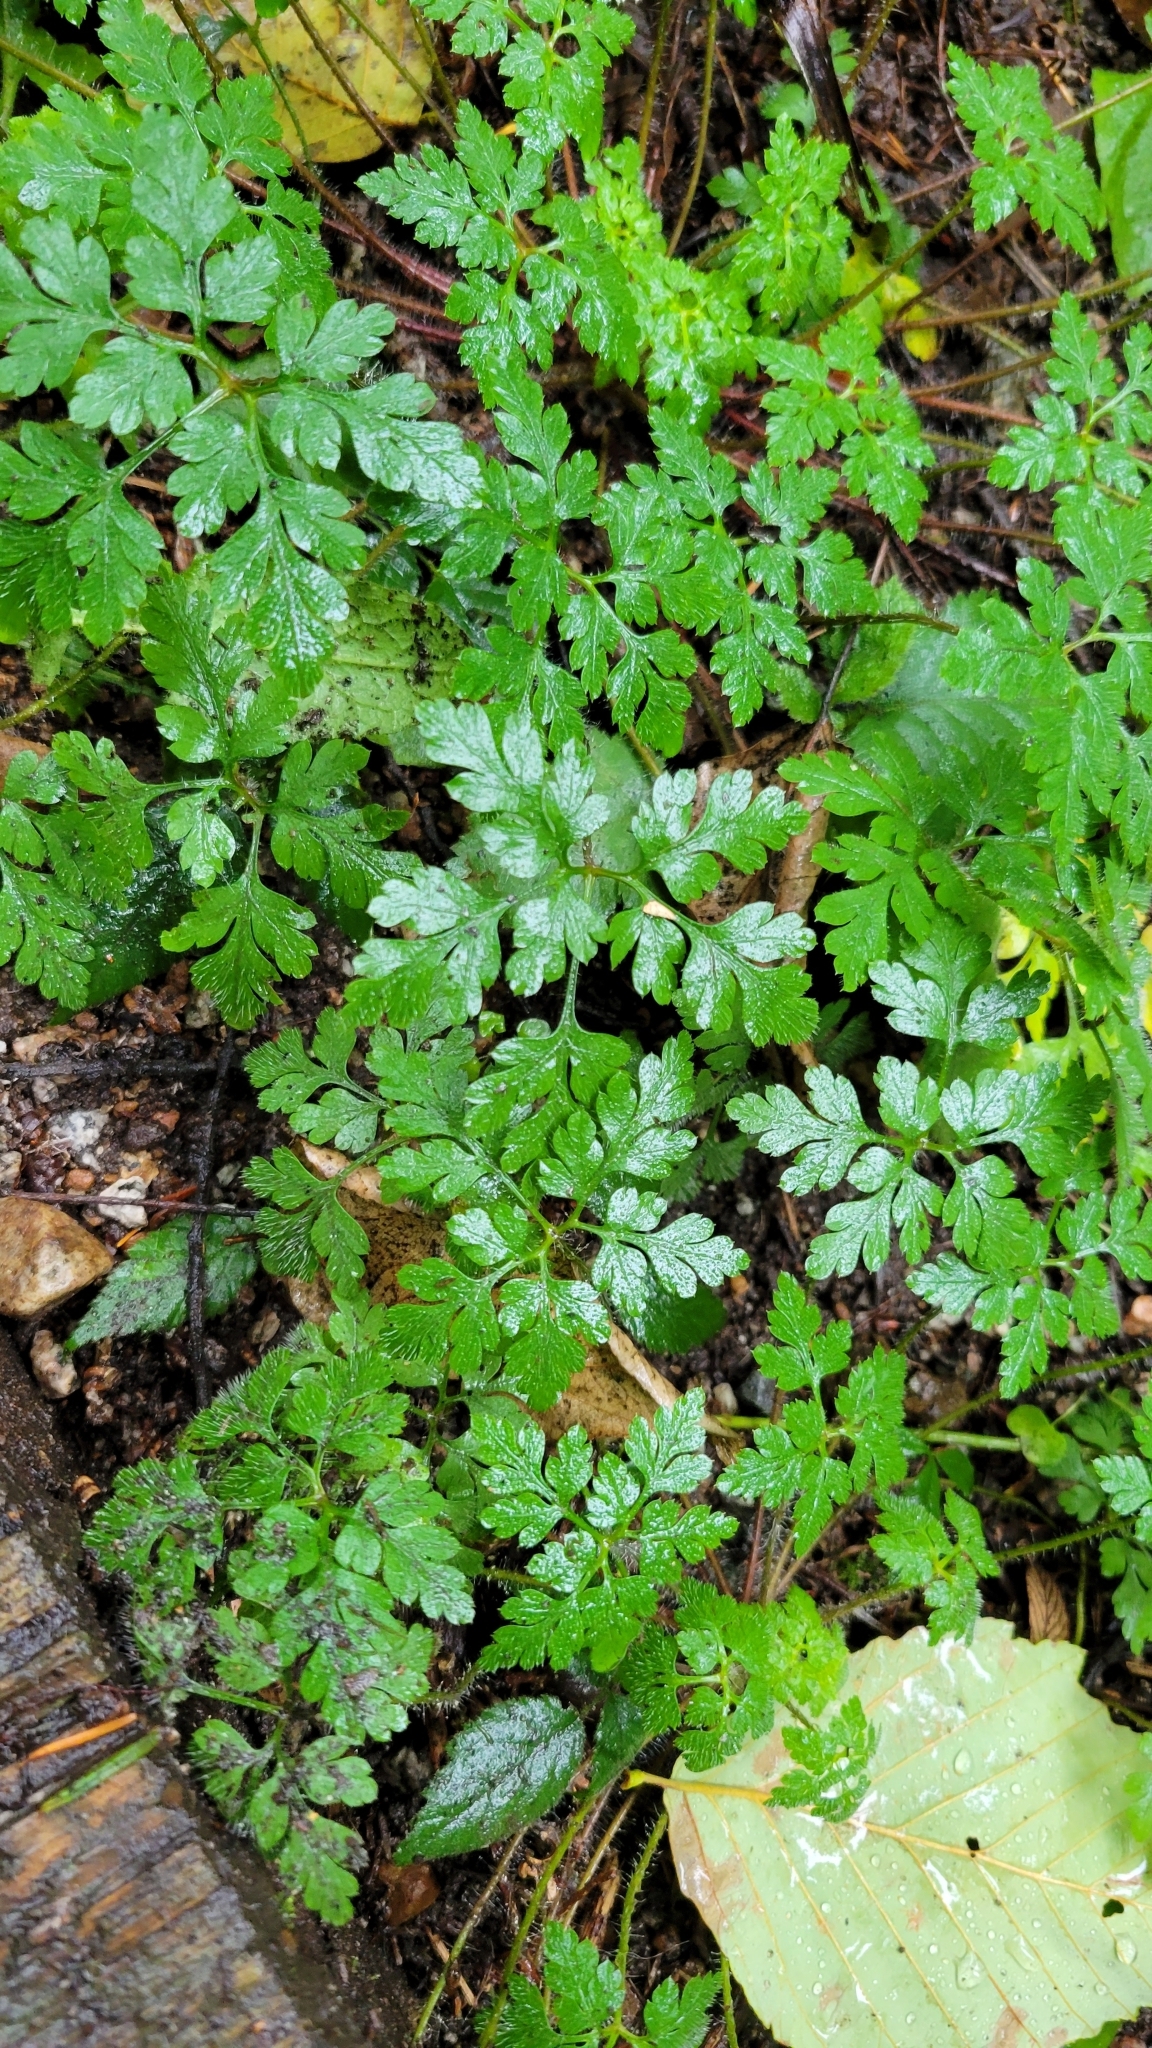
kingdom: Plantae
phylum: Tracheophyta
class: Magnoliopsida
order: Geraniales
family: Geraniaceae
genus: Geranium
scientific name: Geranium robertianum
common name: Herb-robert
